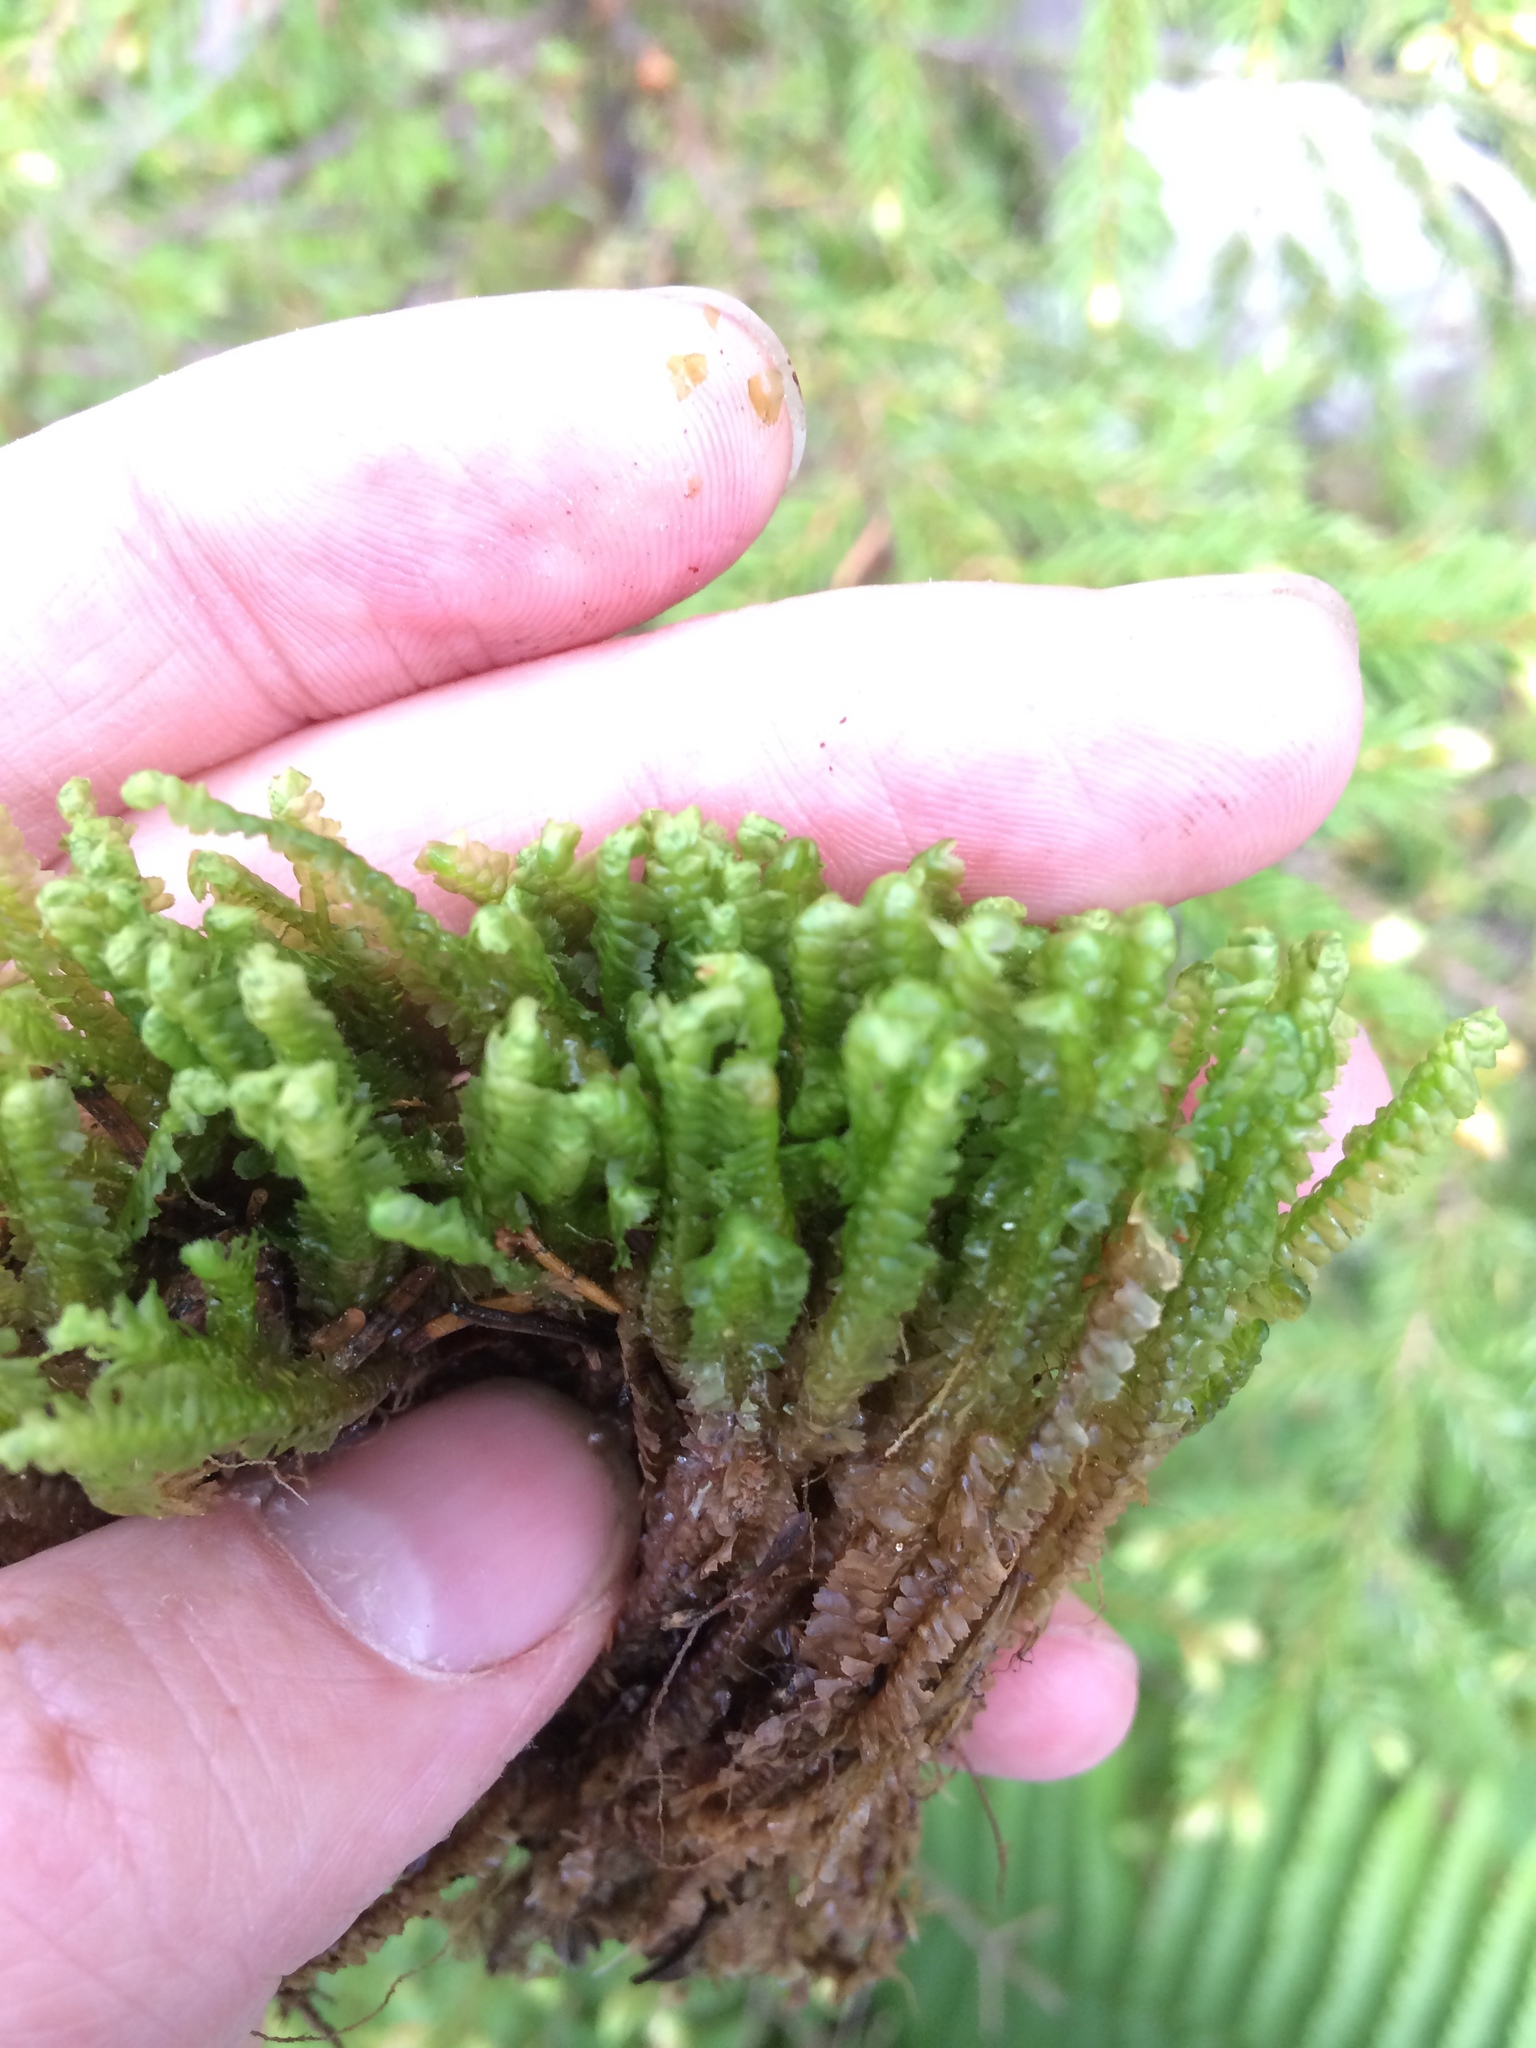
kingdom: Plantae
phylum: Marchantiophyta
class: Jungermanniopsida
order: Jungermanniales
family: Lepidoziaceae
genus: Bazzania
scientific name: Bazzania trilobata
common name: Three-lobed whipwort
